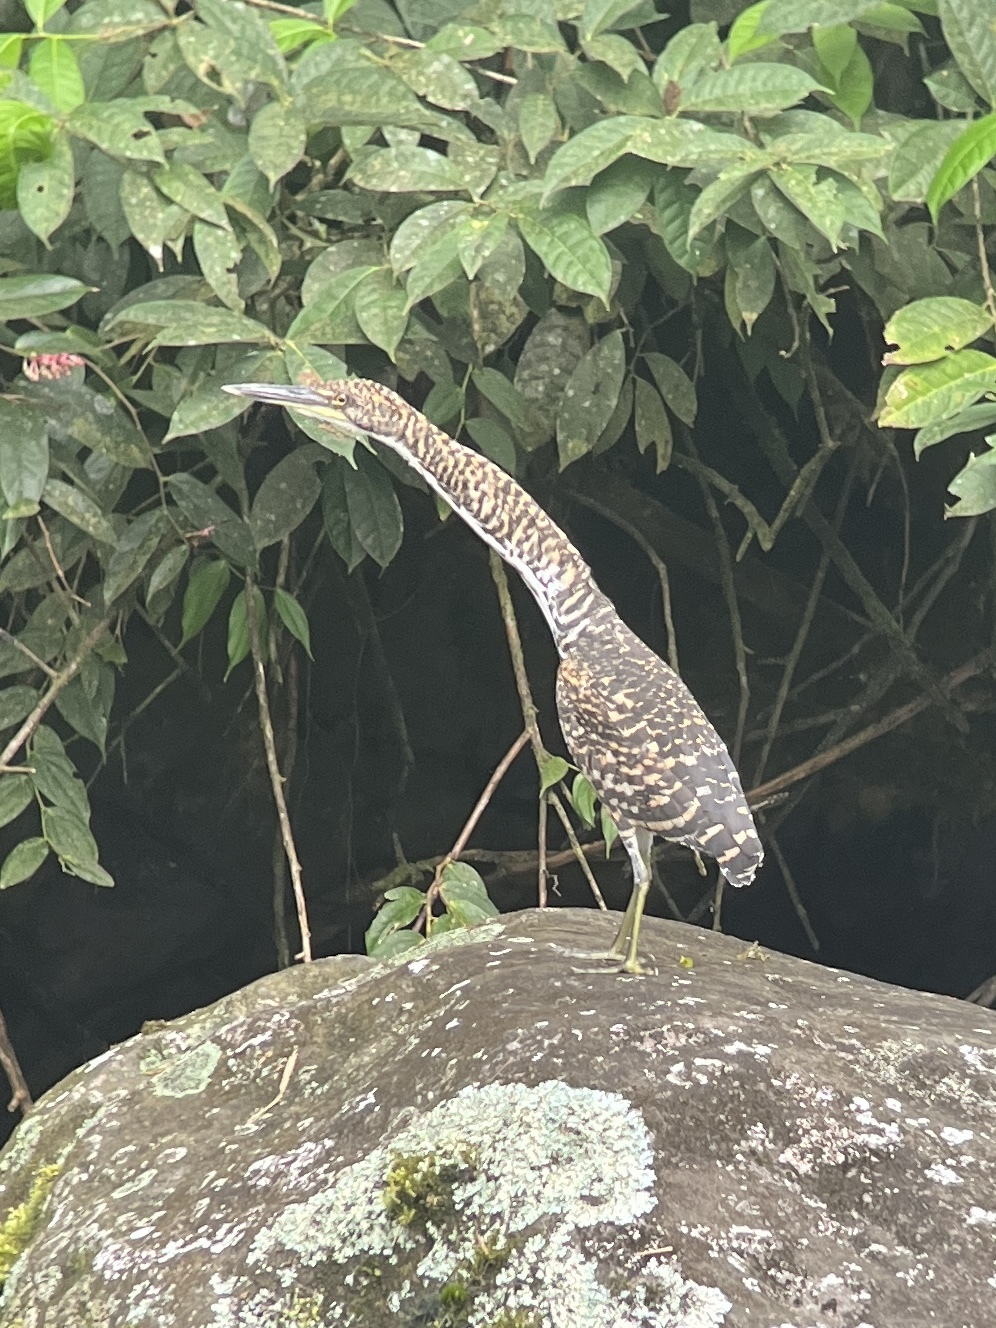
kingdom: Animalia
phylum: Chordata
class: Aves
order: Pelecaniformes
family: Ardeidae
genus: Tigrisoma
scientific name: Tigrisoma fasciatum
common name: Fasciated tiger-heron
